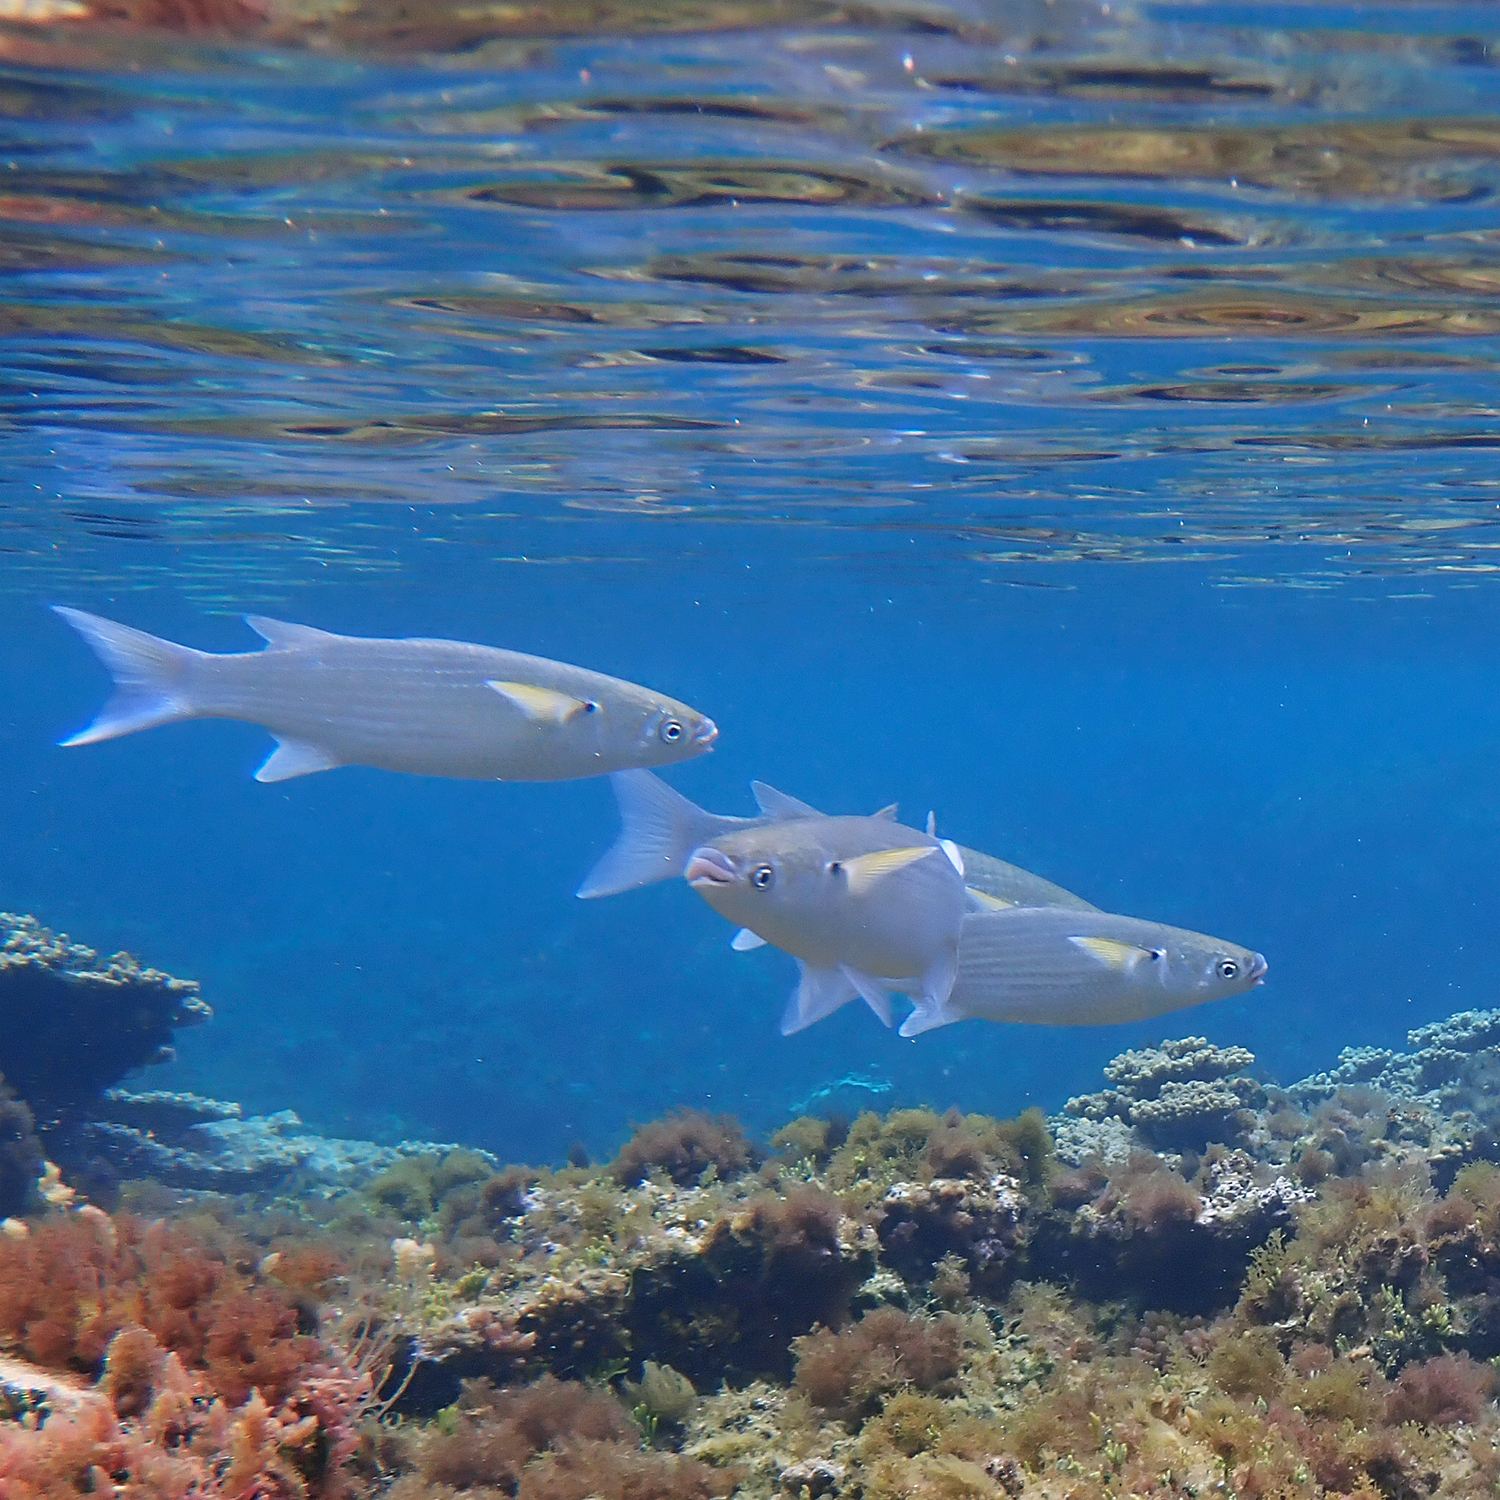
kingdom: Animalia
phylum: Chordata
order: Mugiliformes
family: Mugilidae
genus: Crenimugil
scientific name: Crenimugil crenilabis
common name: Fringelip mullet
